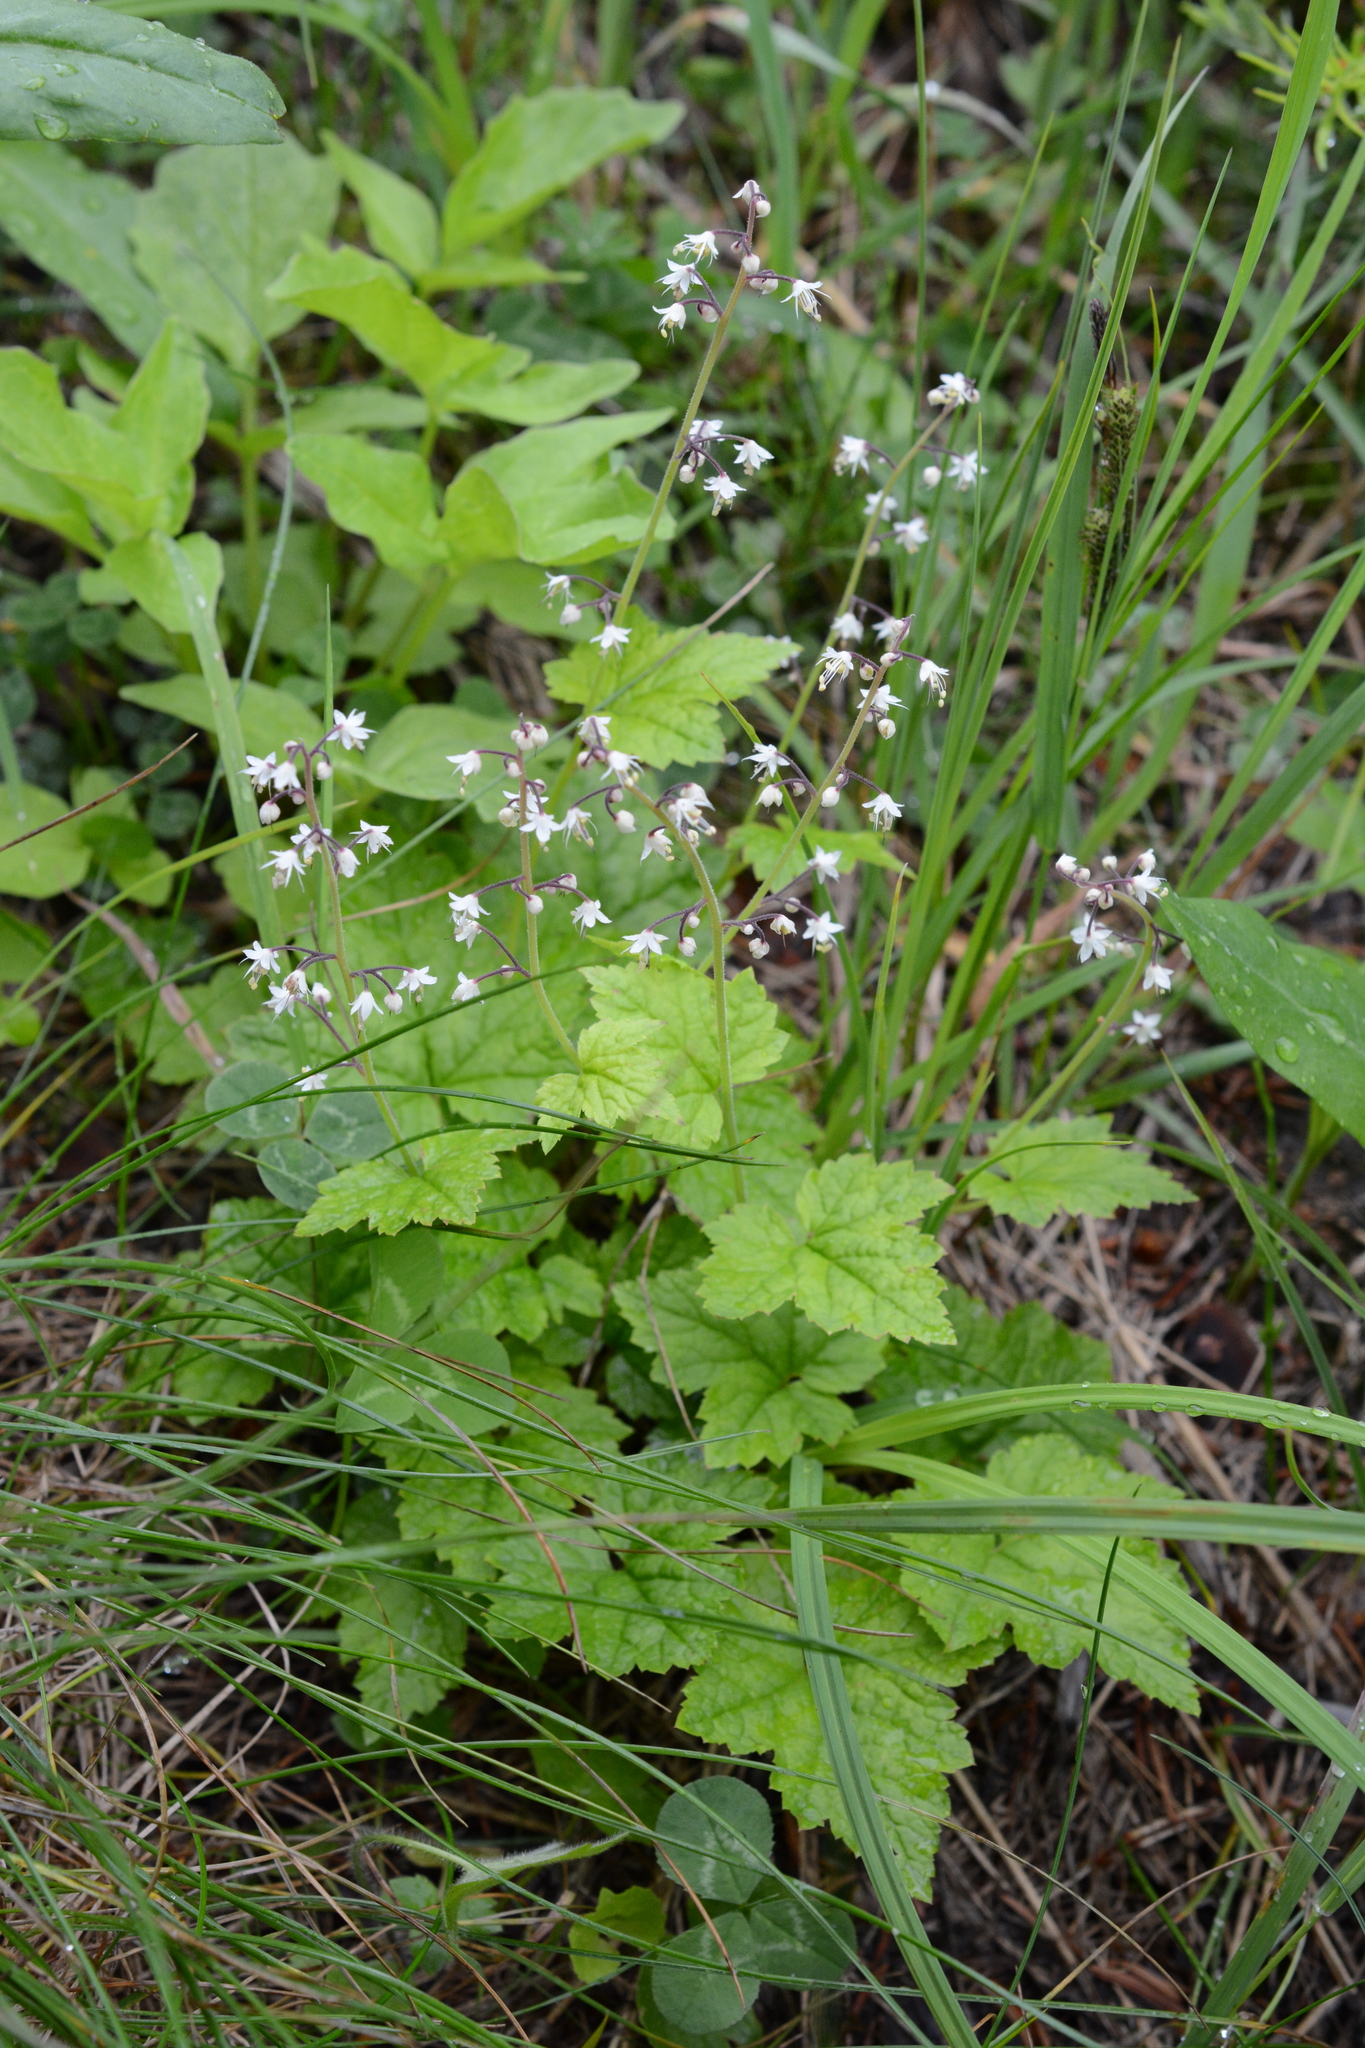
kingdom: Plantae
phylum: Tracheophyta
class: Magnoliopsida
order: Saxifragales
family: Saxifragaceae
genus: Tiarella
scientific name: Tiarella trifoliata
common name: Sugar-scoop
